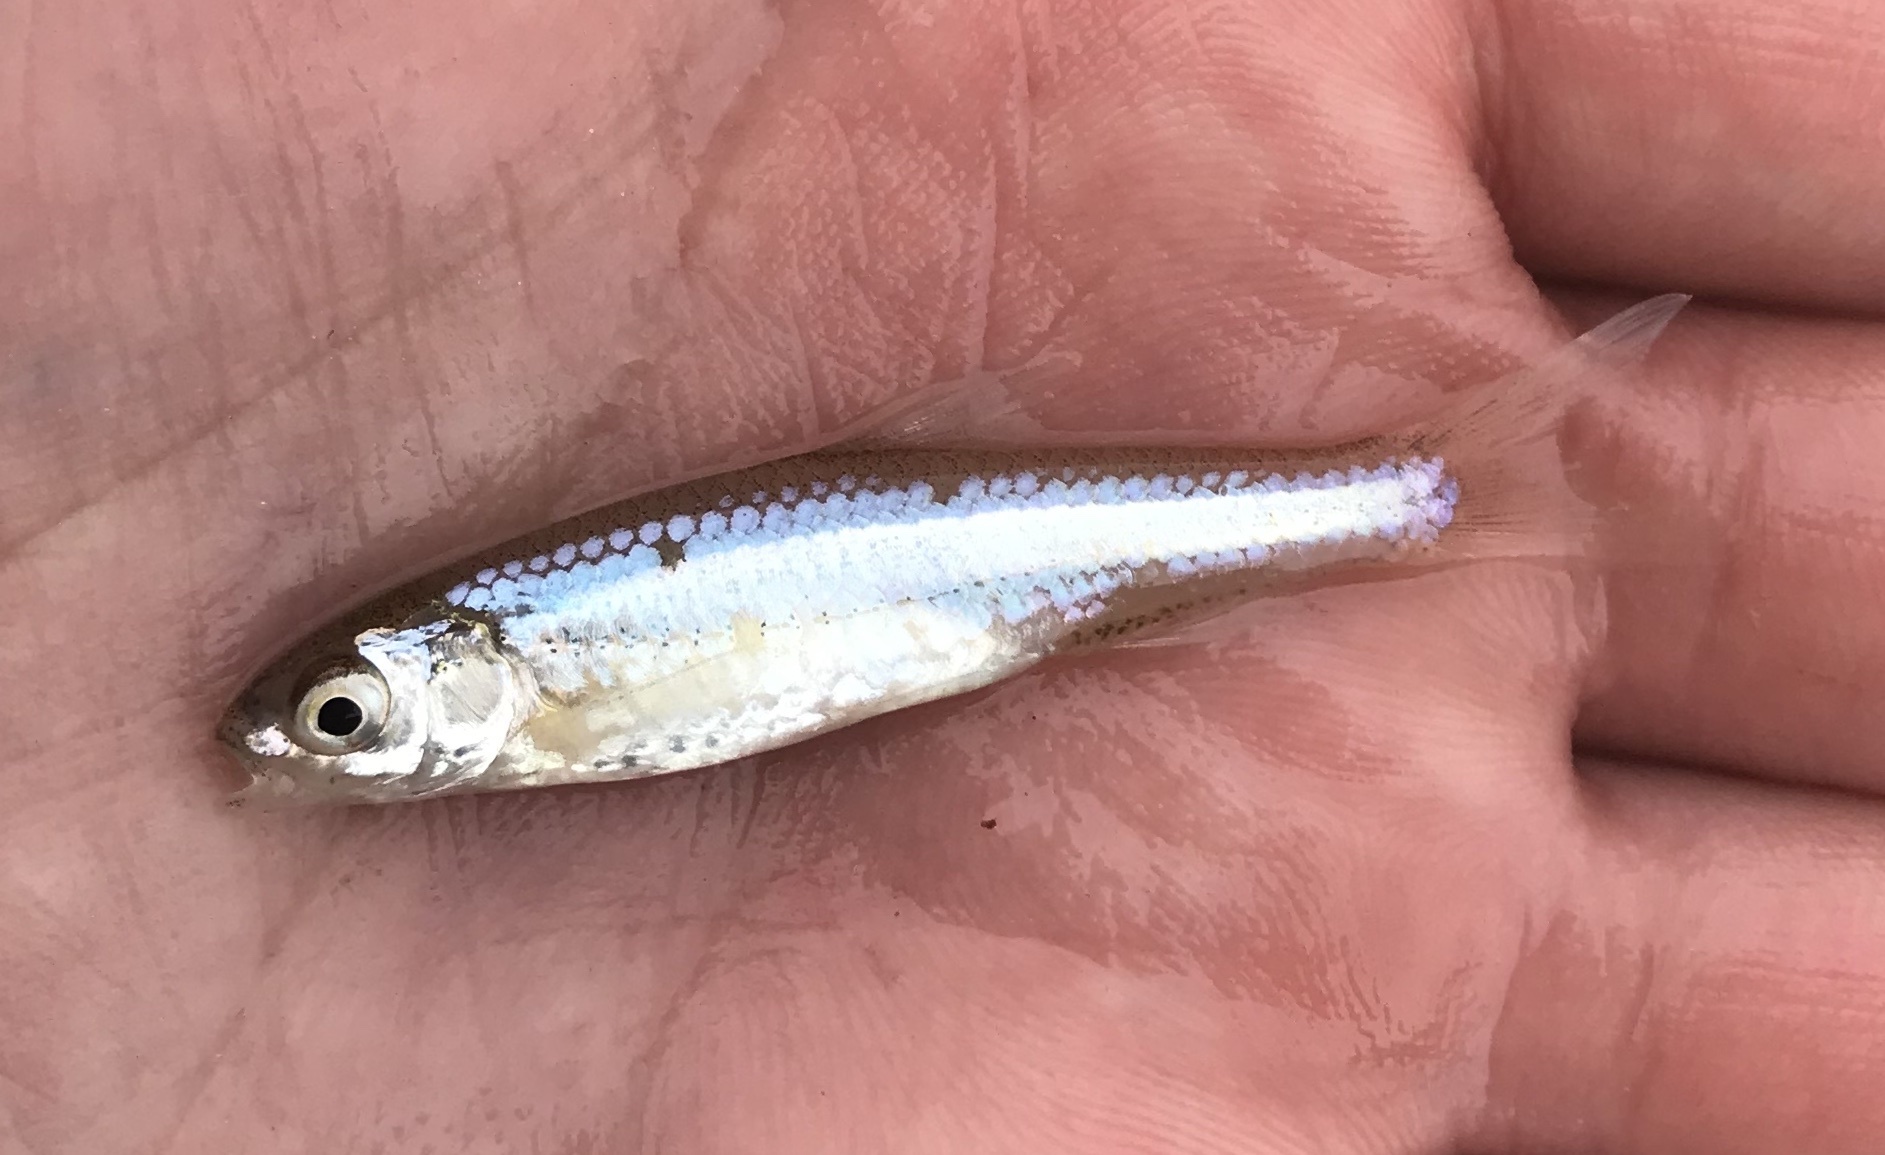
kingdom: Animalia
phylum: Chordata
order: Cypriniformes
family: Cyprinidae
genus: Notropis
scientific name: Notropis
